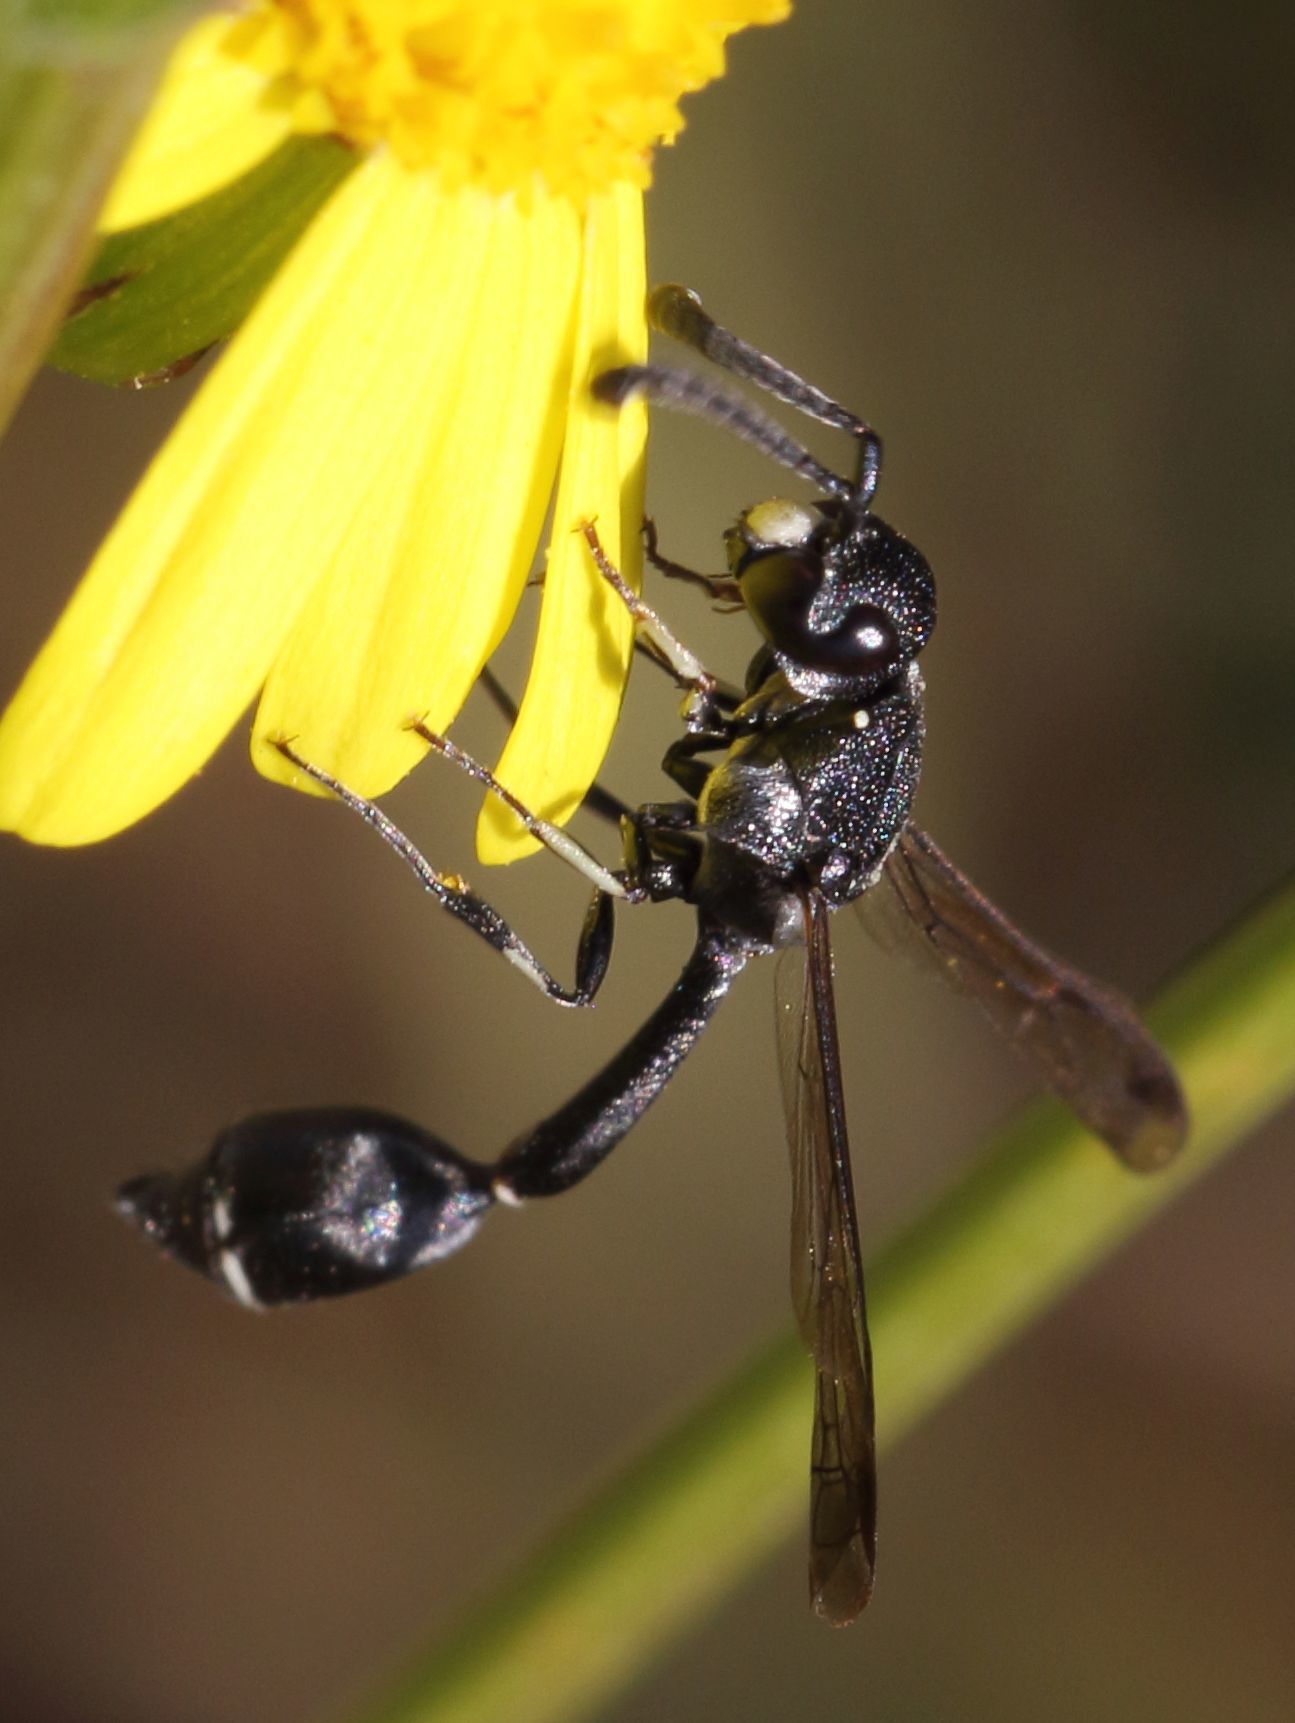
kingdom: Animalia
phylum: Arthropoda
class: Insecta
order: Hymenoptera
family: Eumenidae
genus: Micreumenes
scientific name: Micreumenes
